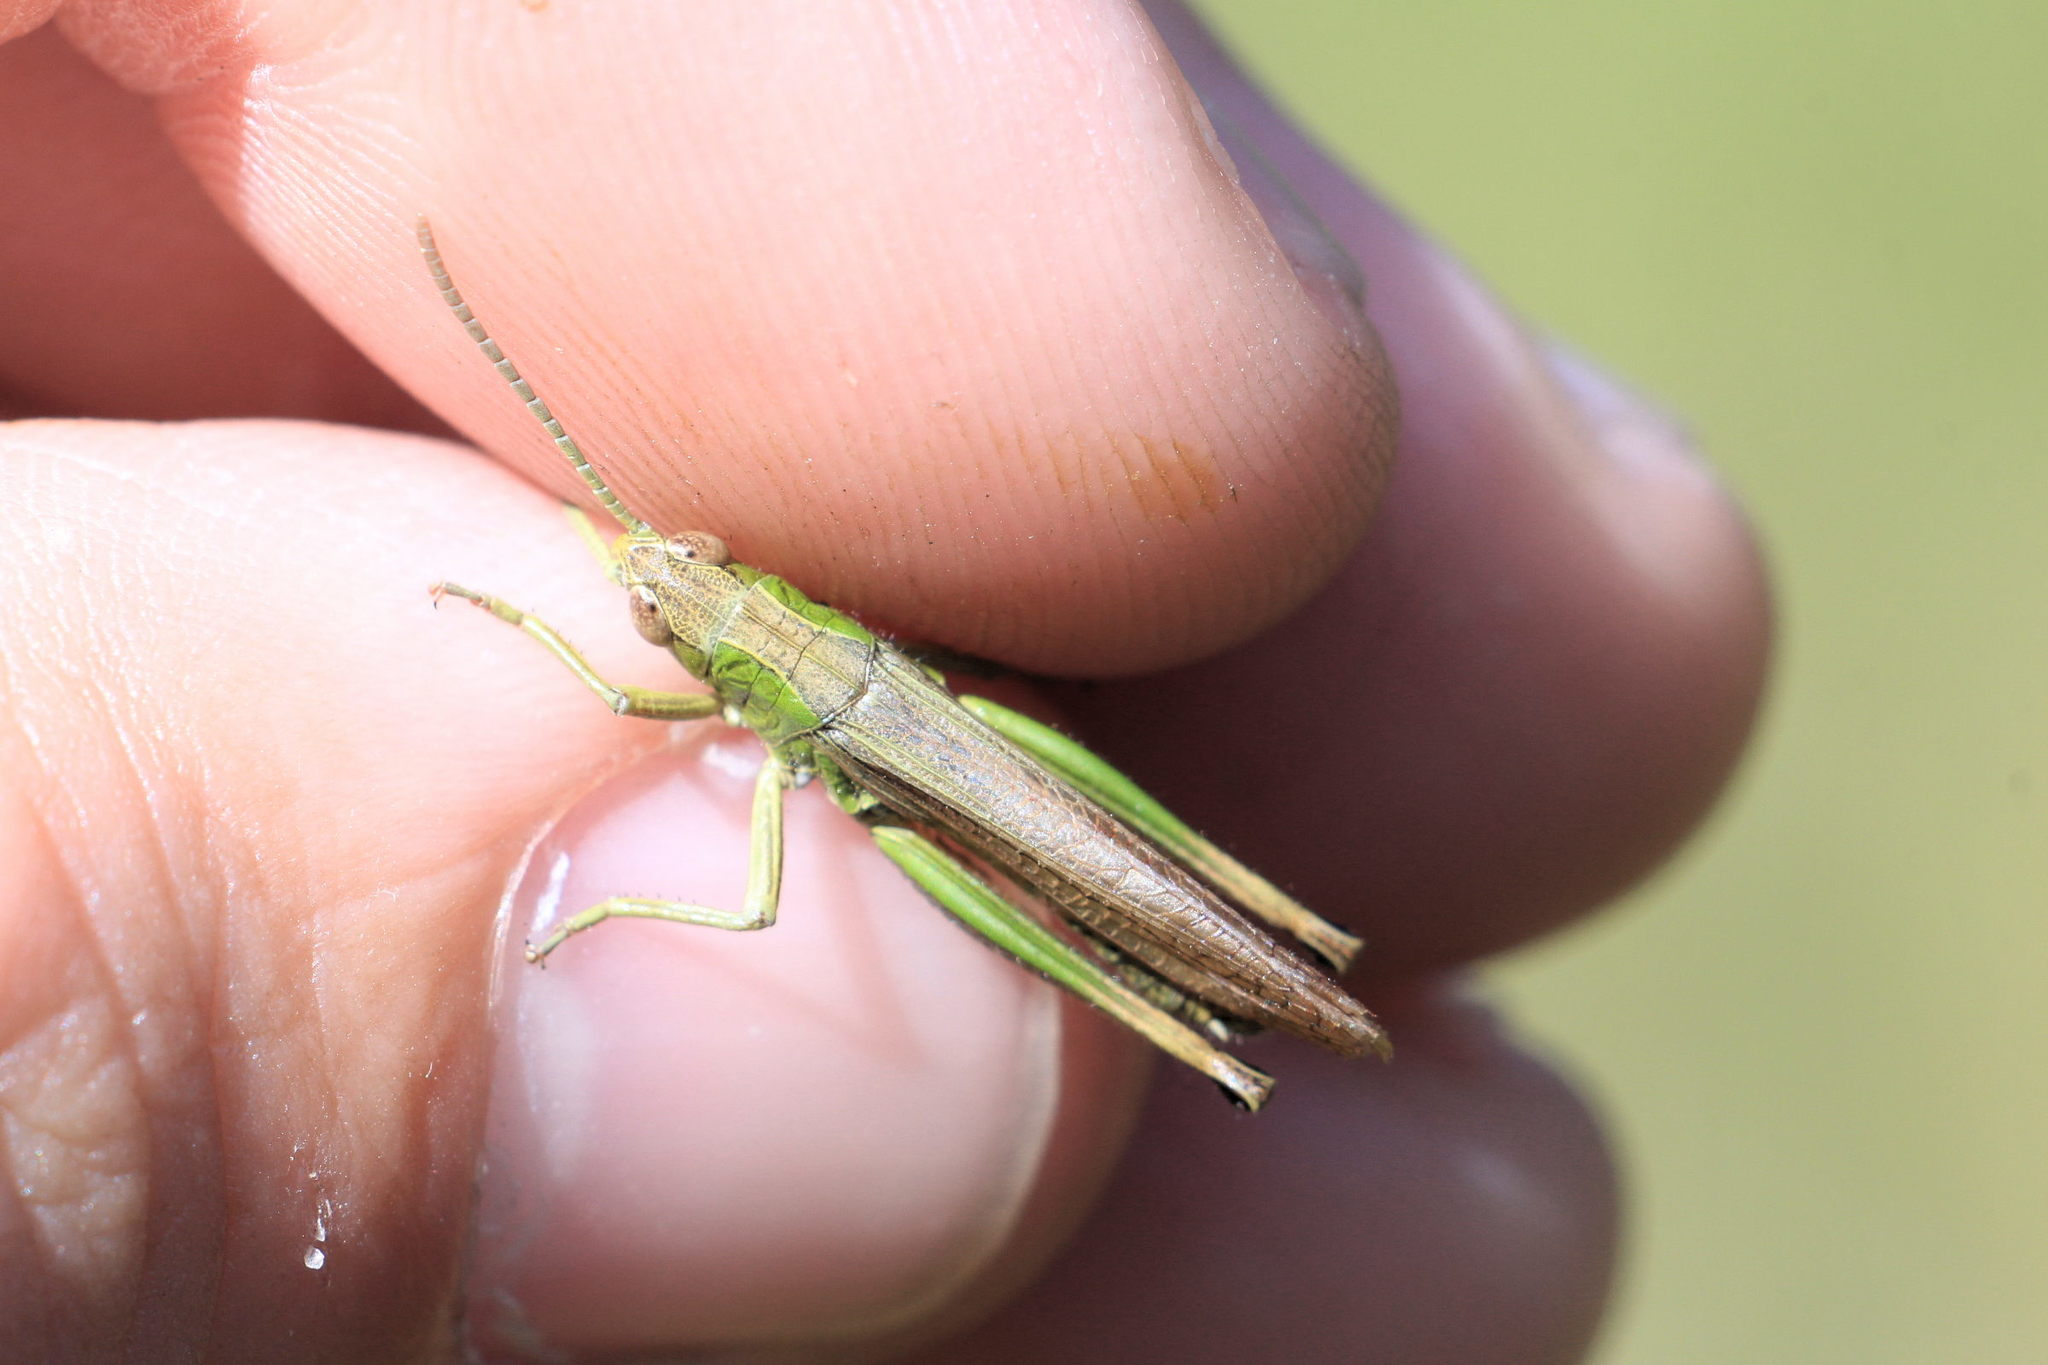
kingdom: Animalia
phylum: Arthropoda
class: Insecta
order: Orthoptera
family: Acrididae
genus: Pseudochorthippus
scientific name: Pseudochorthippus parallelus
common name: Meadow grasshopper
